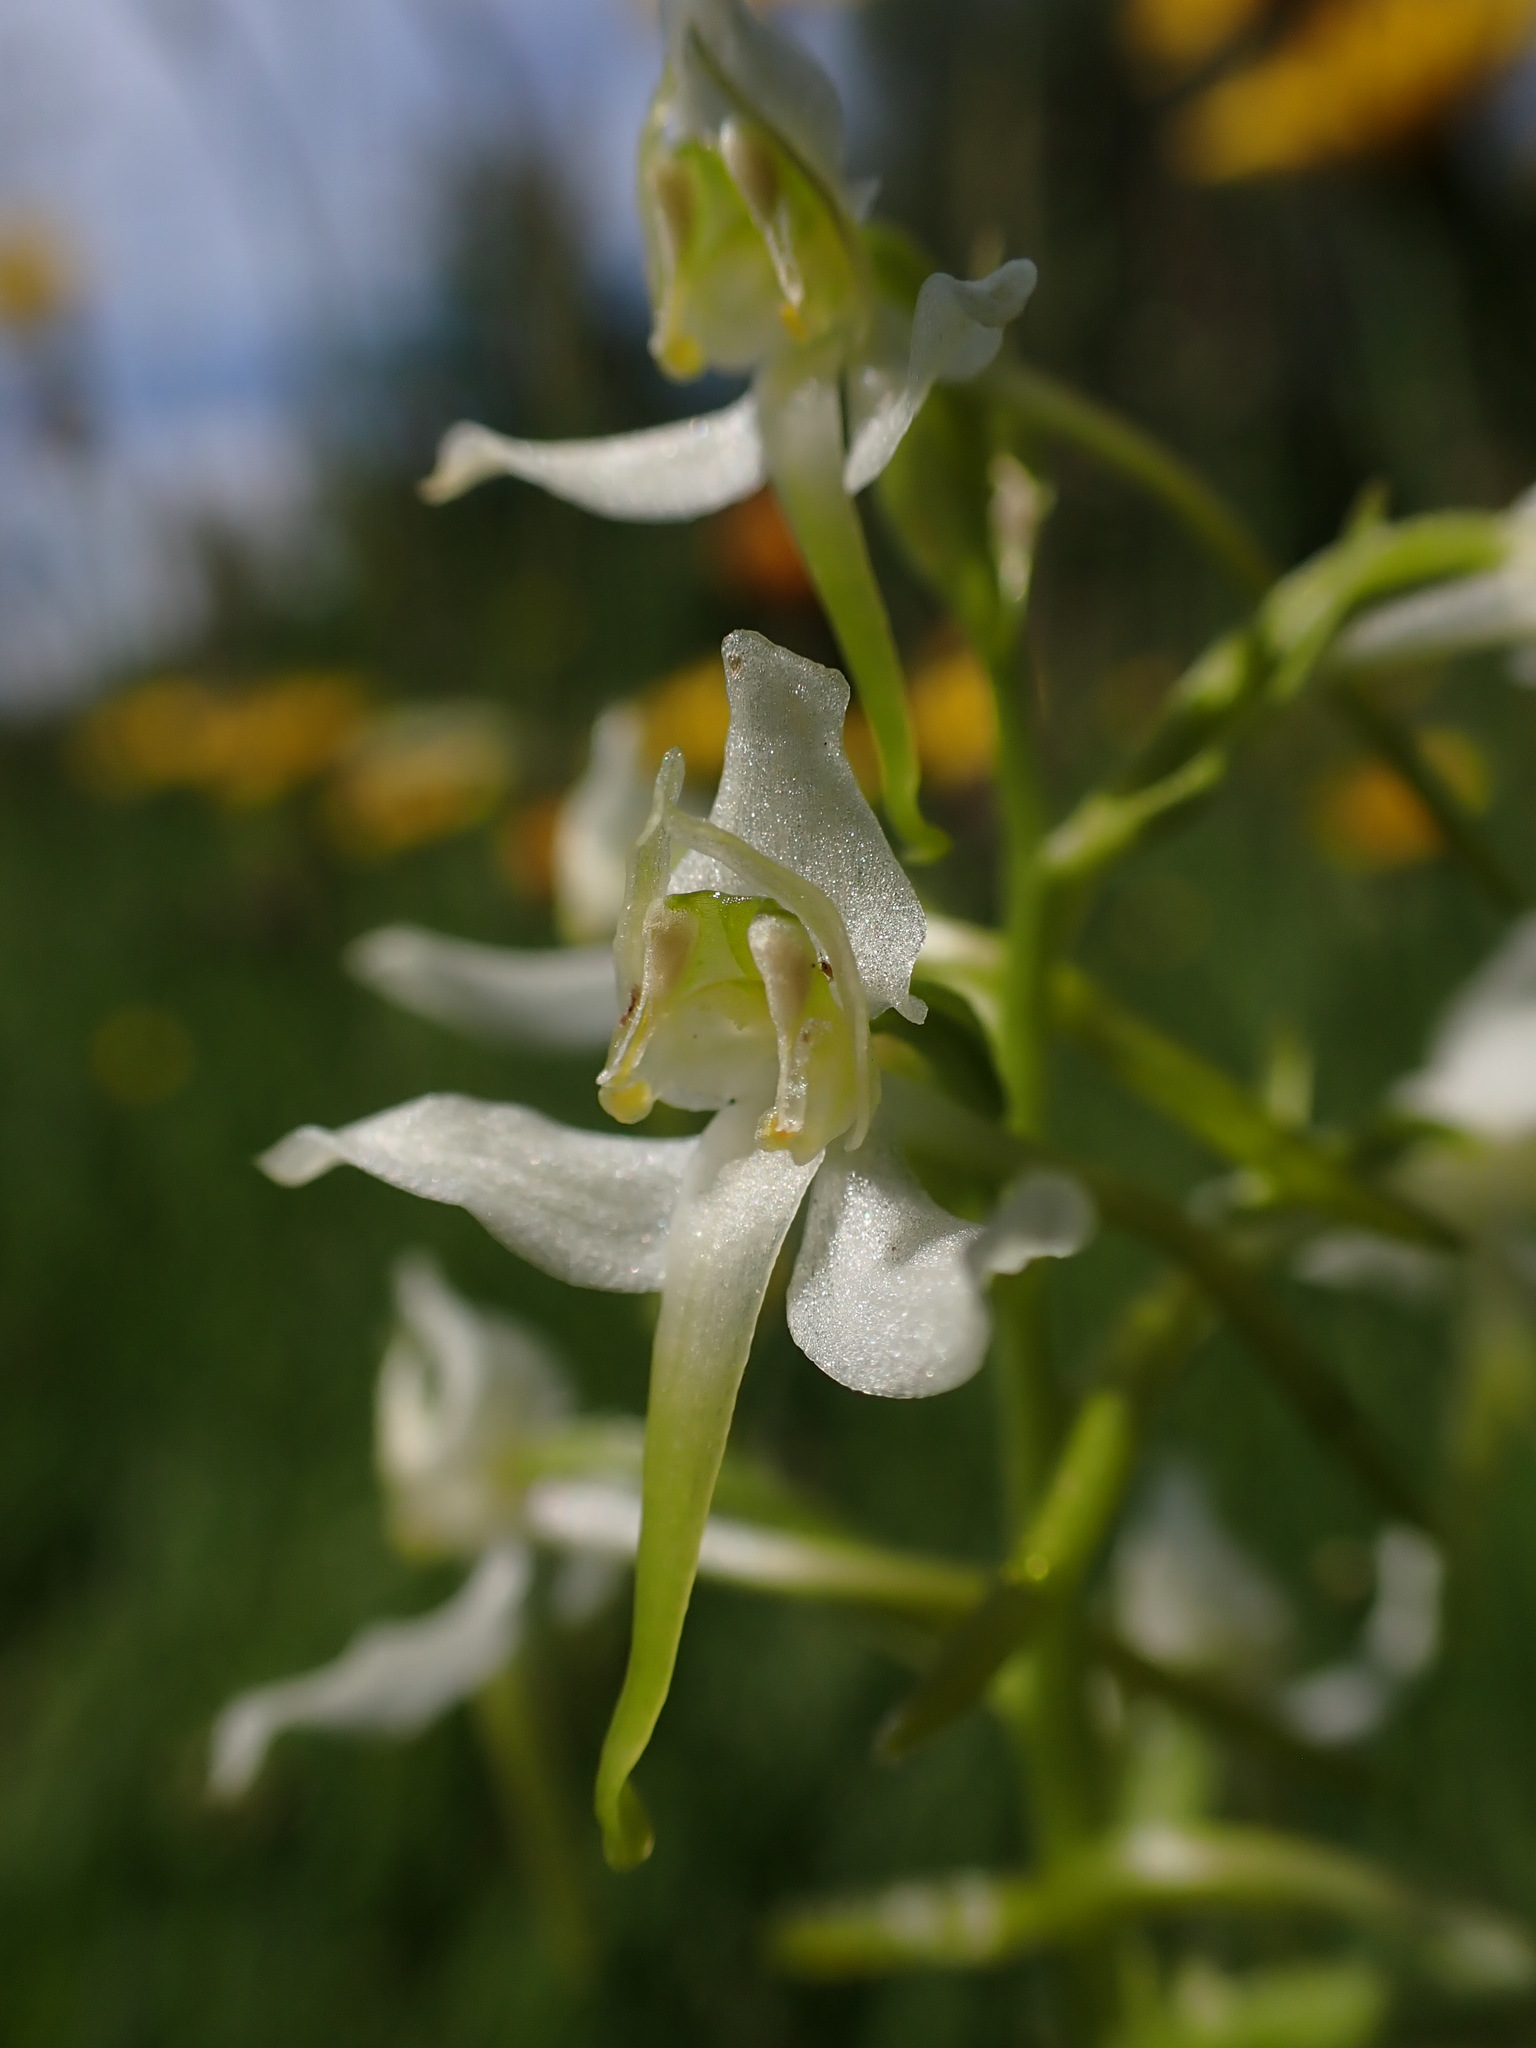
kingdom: Plantae
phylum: Tracheophyta
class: Liliopsida
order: Asparagales
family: Orchidaceae
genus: Platanthera
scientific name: Platanthera chlorantha
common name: Greater butterfly-orchid
